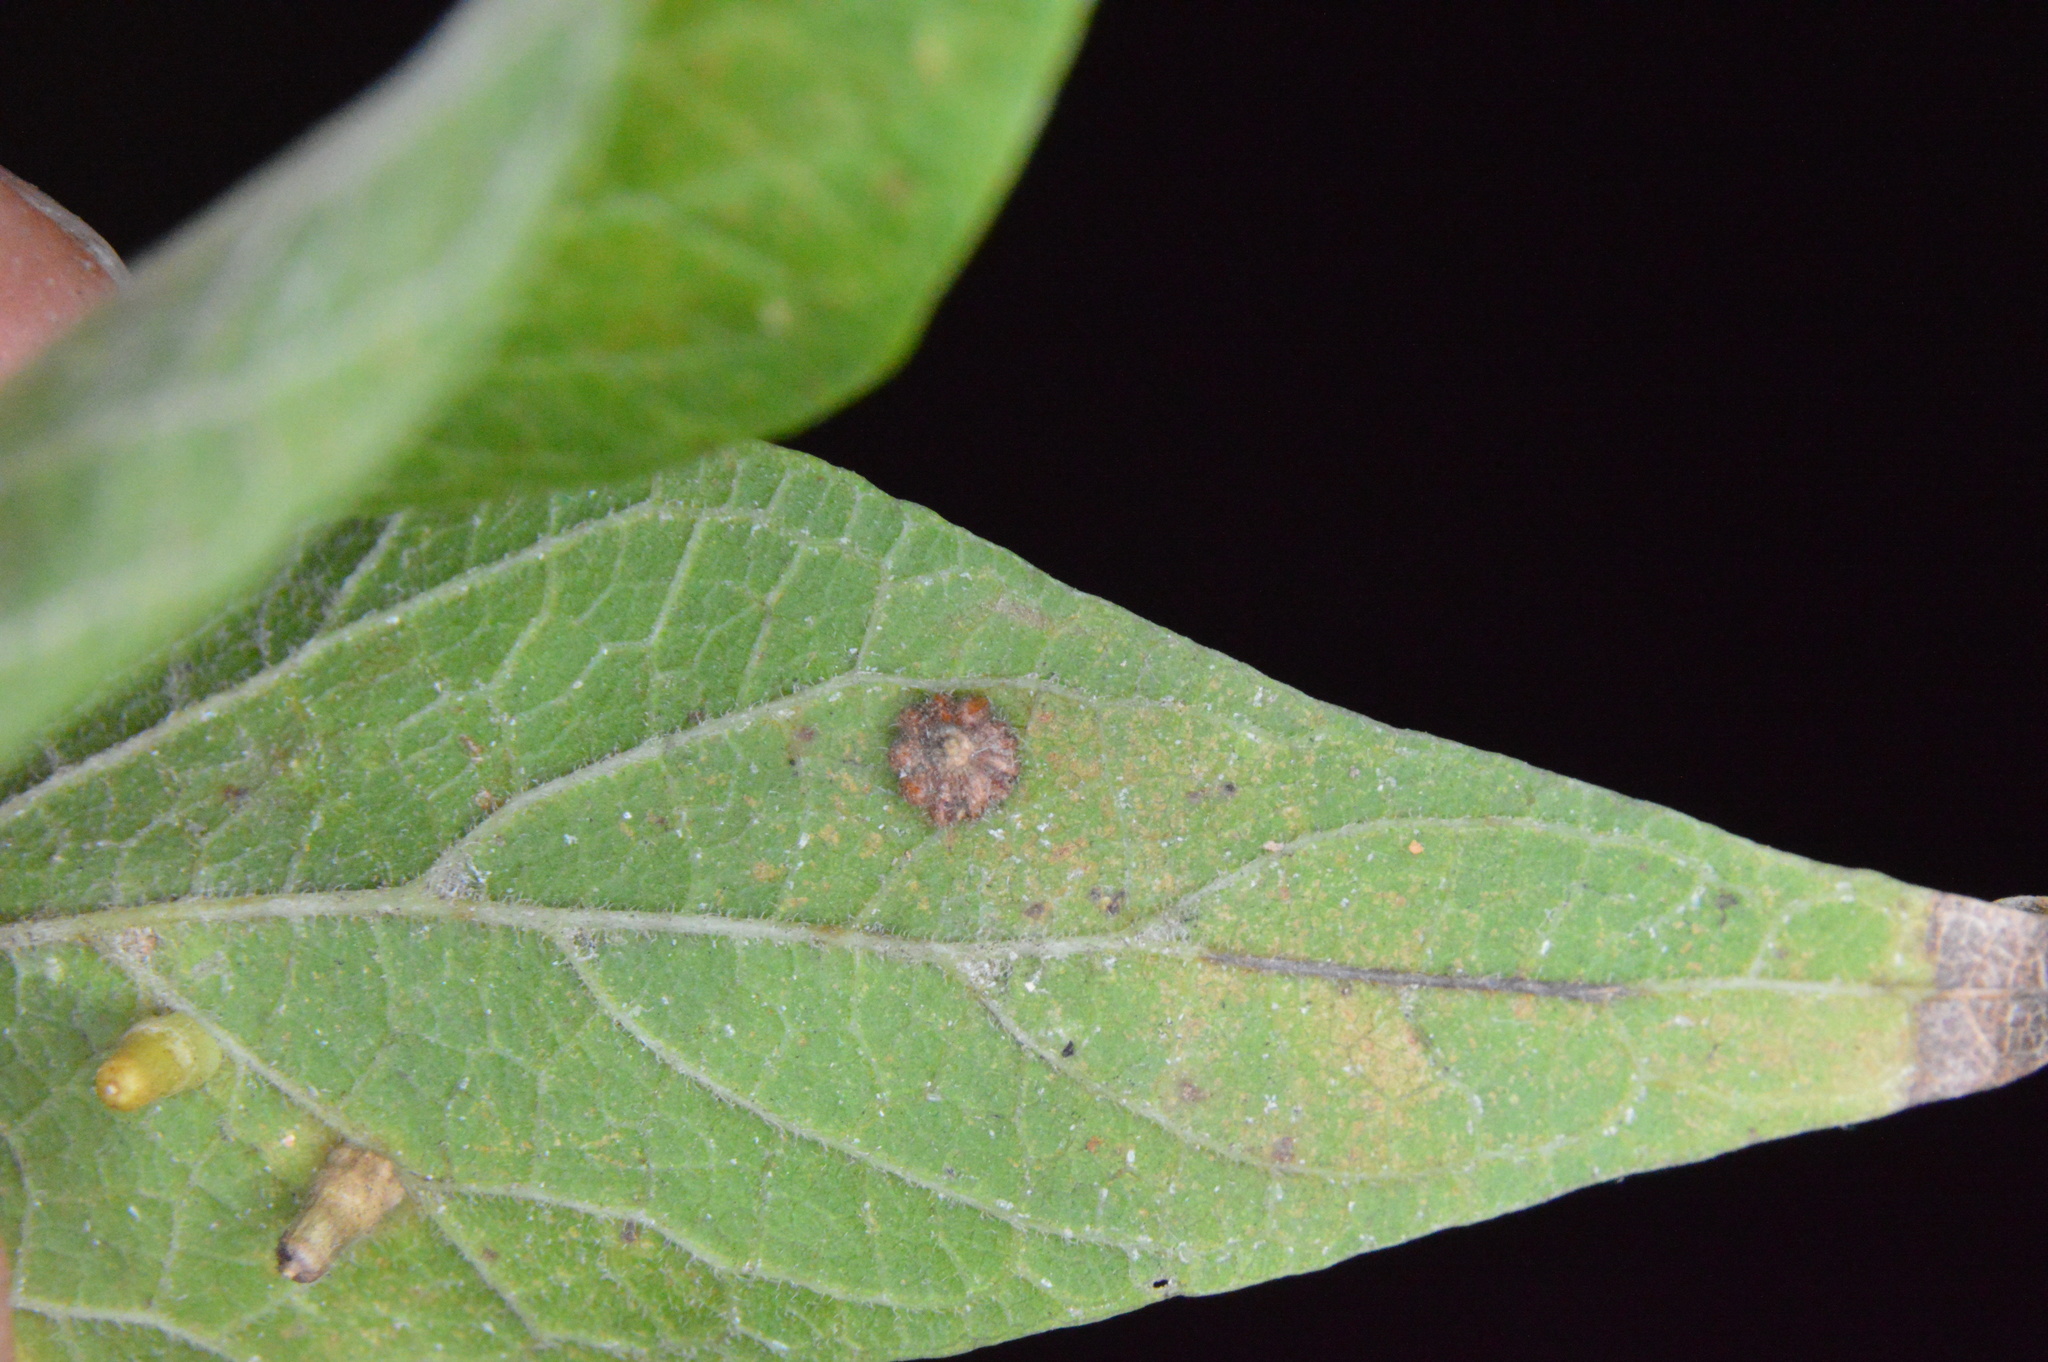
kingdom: Animalia
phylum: Arthropoda
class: Insecta
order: Diptera
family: Cecidomyiidae
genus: Celticecis
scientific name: Celticecis capsularis
